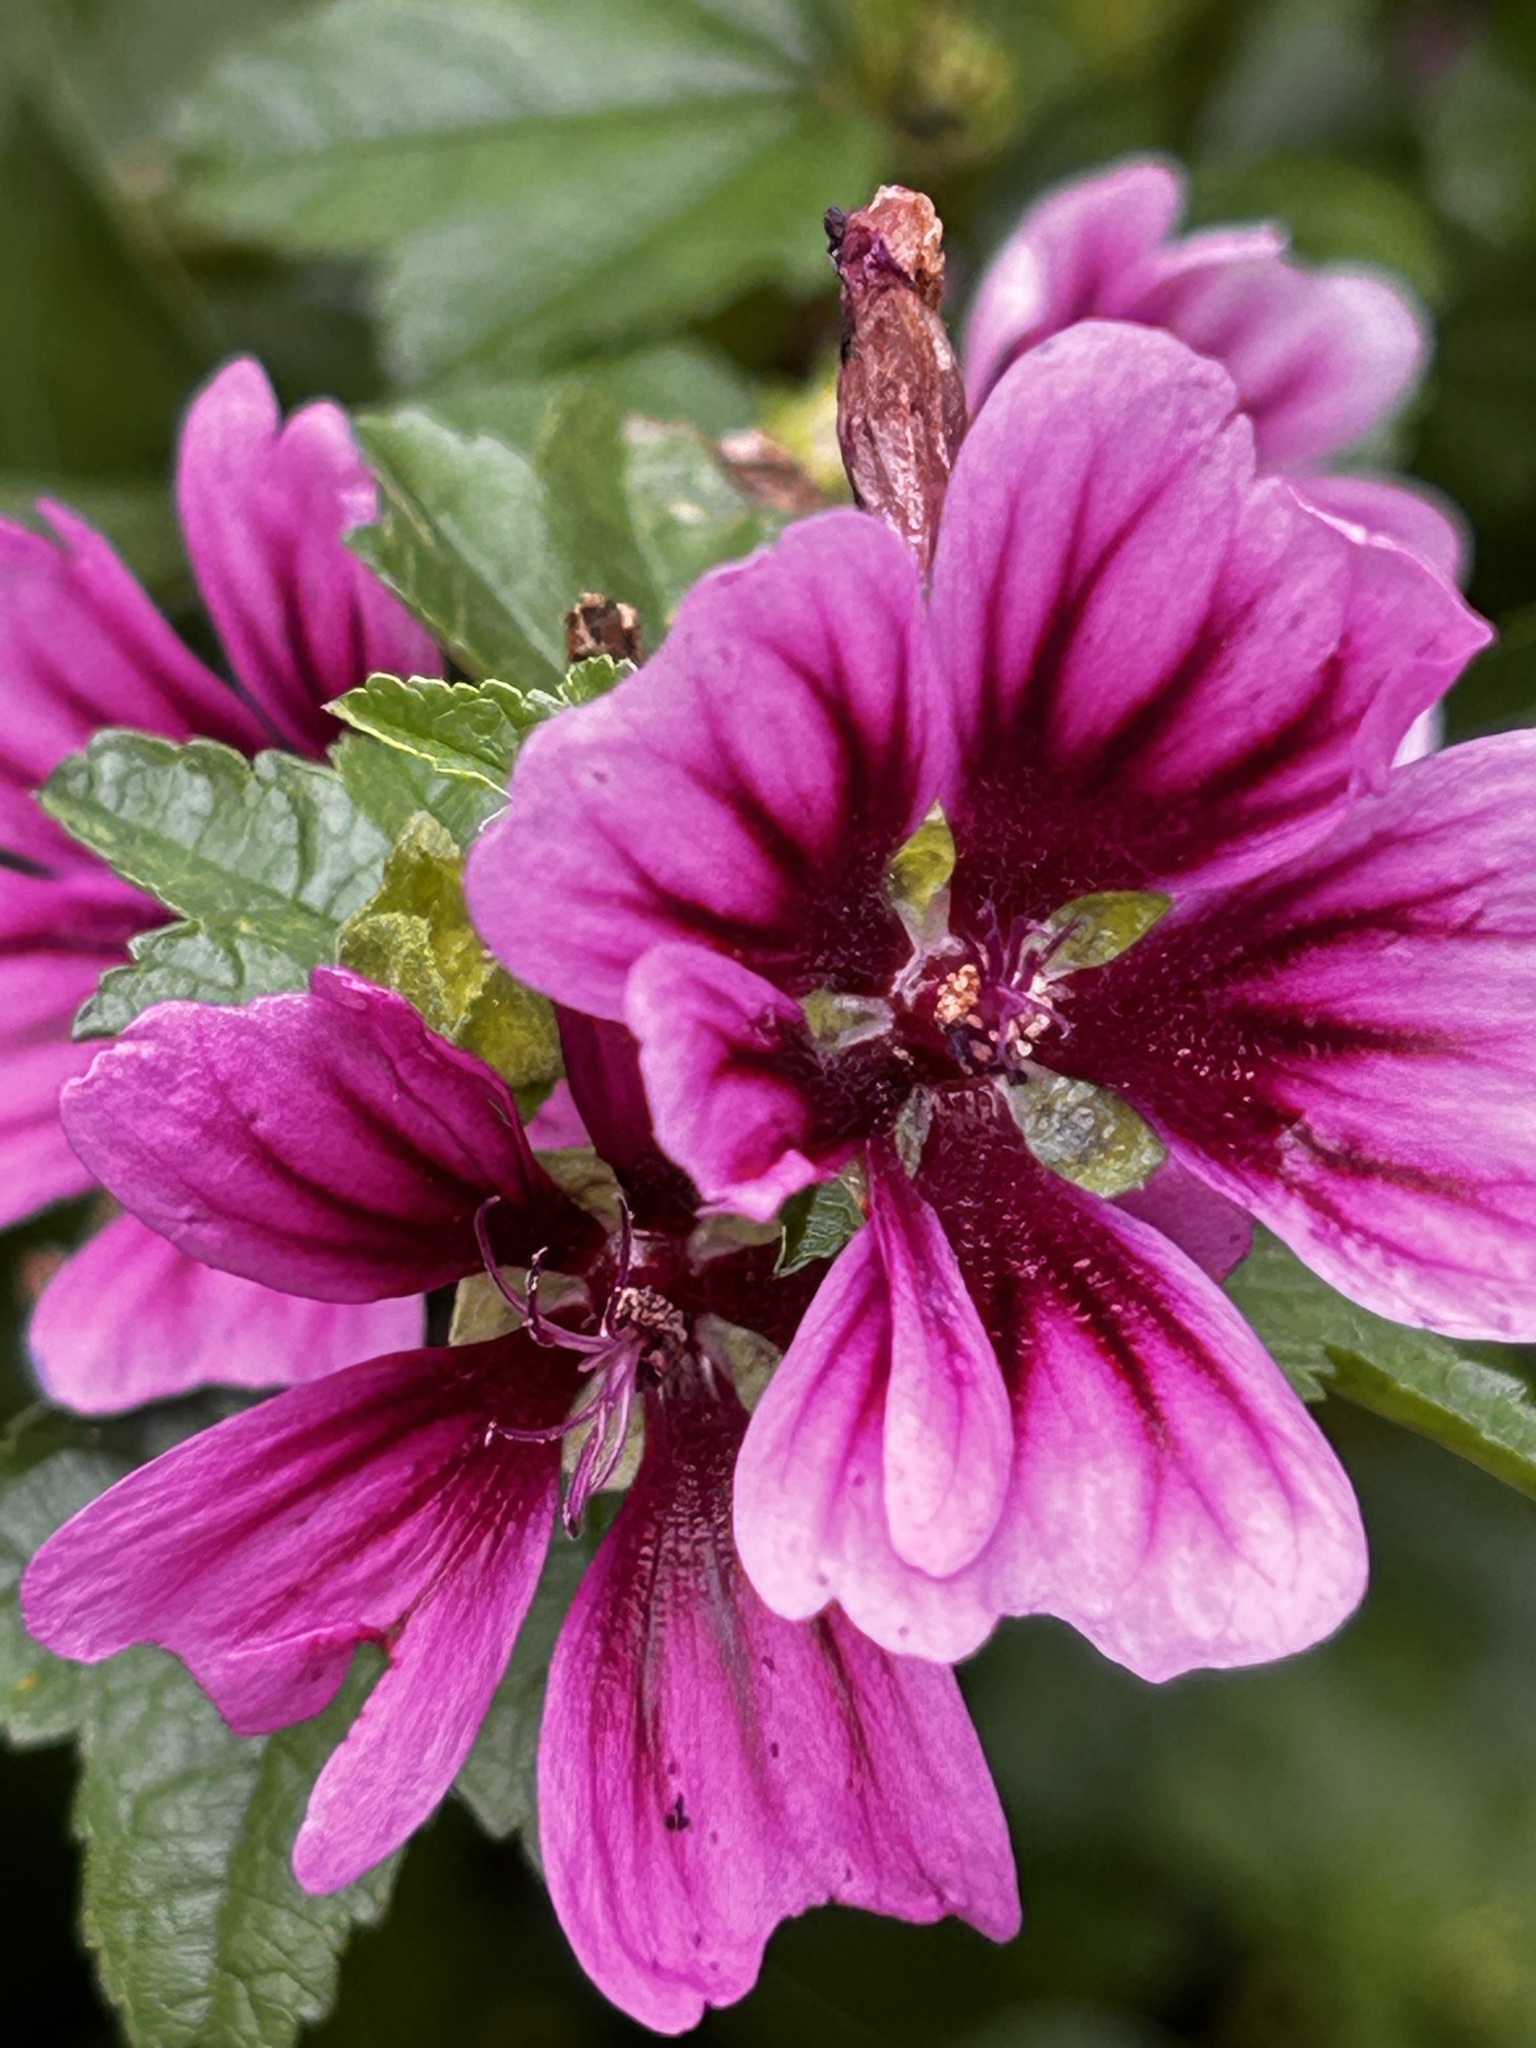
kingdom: Plantae
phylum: Tracheophyta
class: Magnoliopsida
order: Malvales
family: Malvaceae
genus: Malva
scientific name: Malva sylvestris
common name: Common mallow
